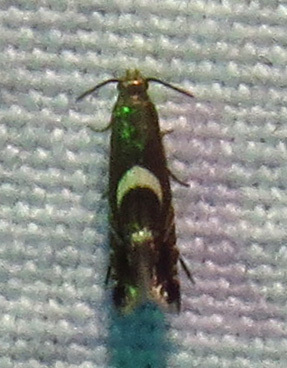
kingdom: Animalia
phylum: Arthropoda
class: Insecta
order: Lepidoptera
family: Glyphipterigidae
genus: Glyphipterix
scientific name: Glyphipterix Diploschizia impigritella
